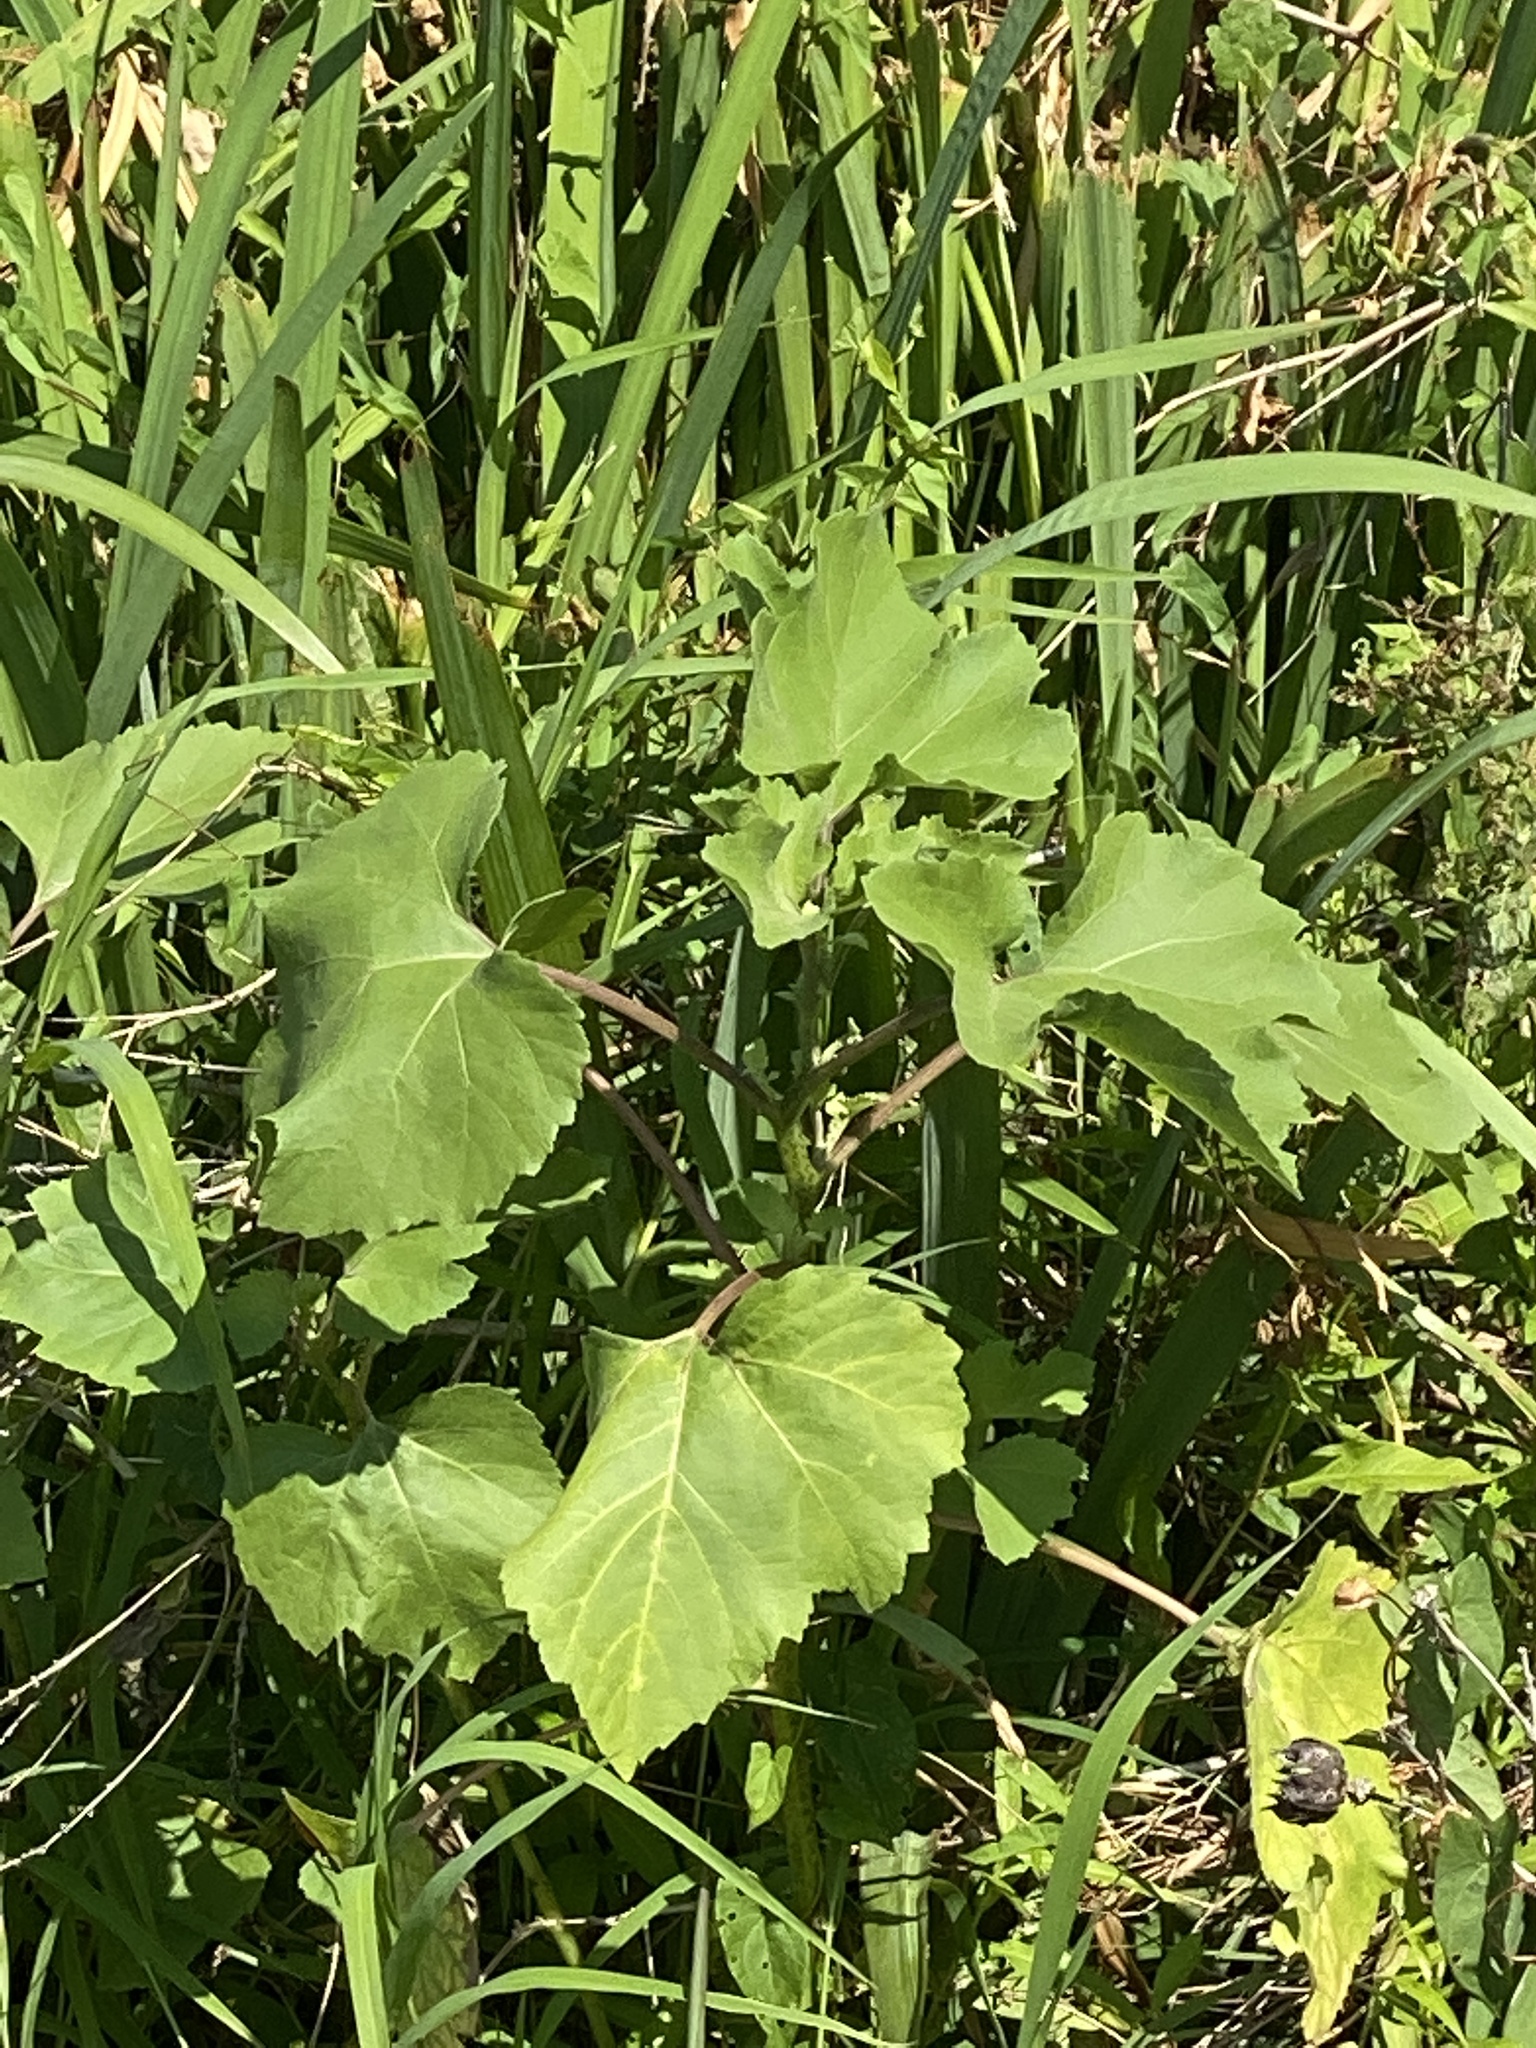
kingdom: Plantae
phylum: Tracheophyta
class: Magnoliopsida
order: Asterales
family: Asteraceae
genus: Xanthium
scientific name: Xanthium strumarium
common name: Rough cocklebur
